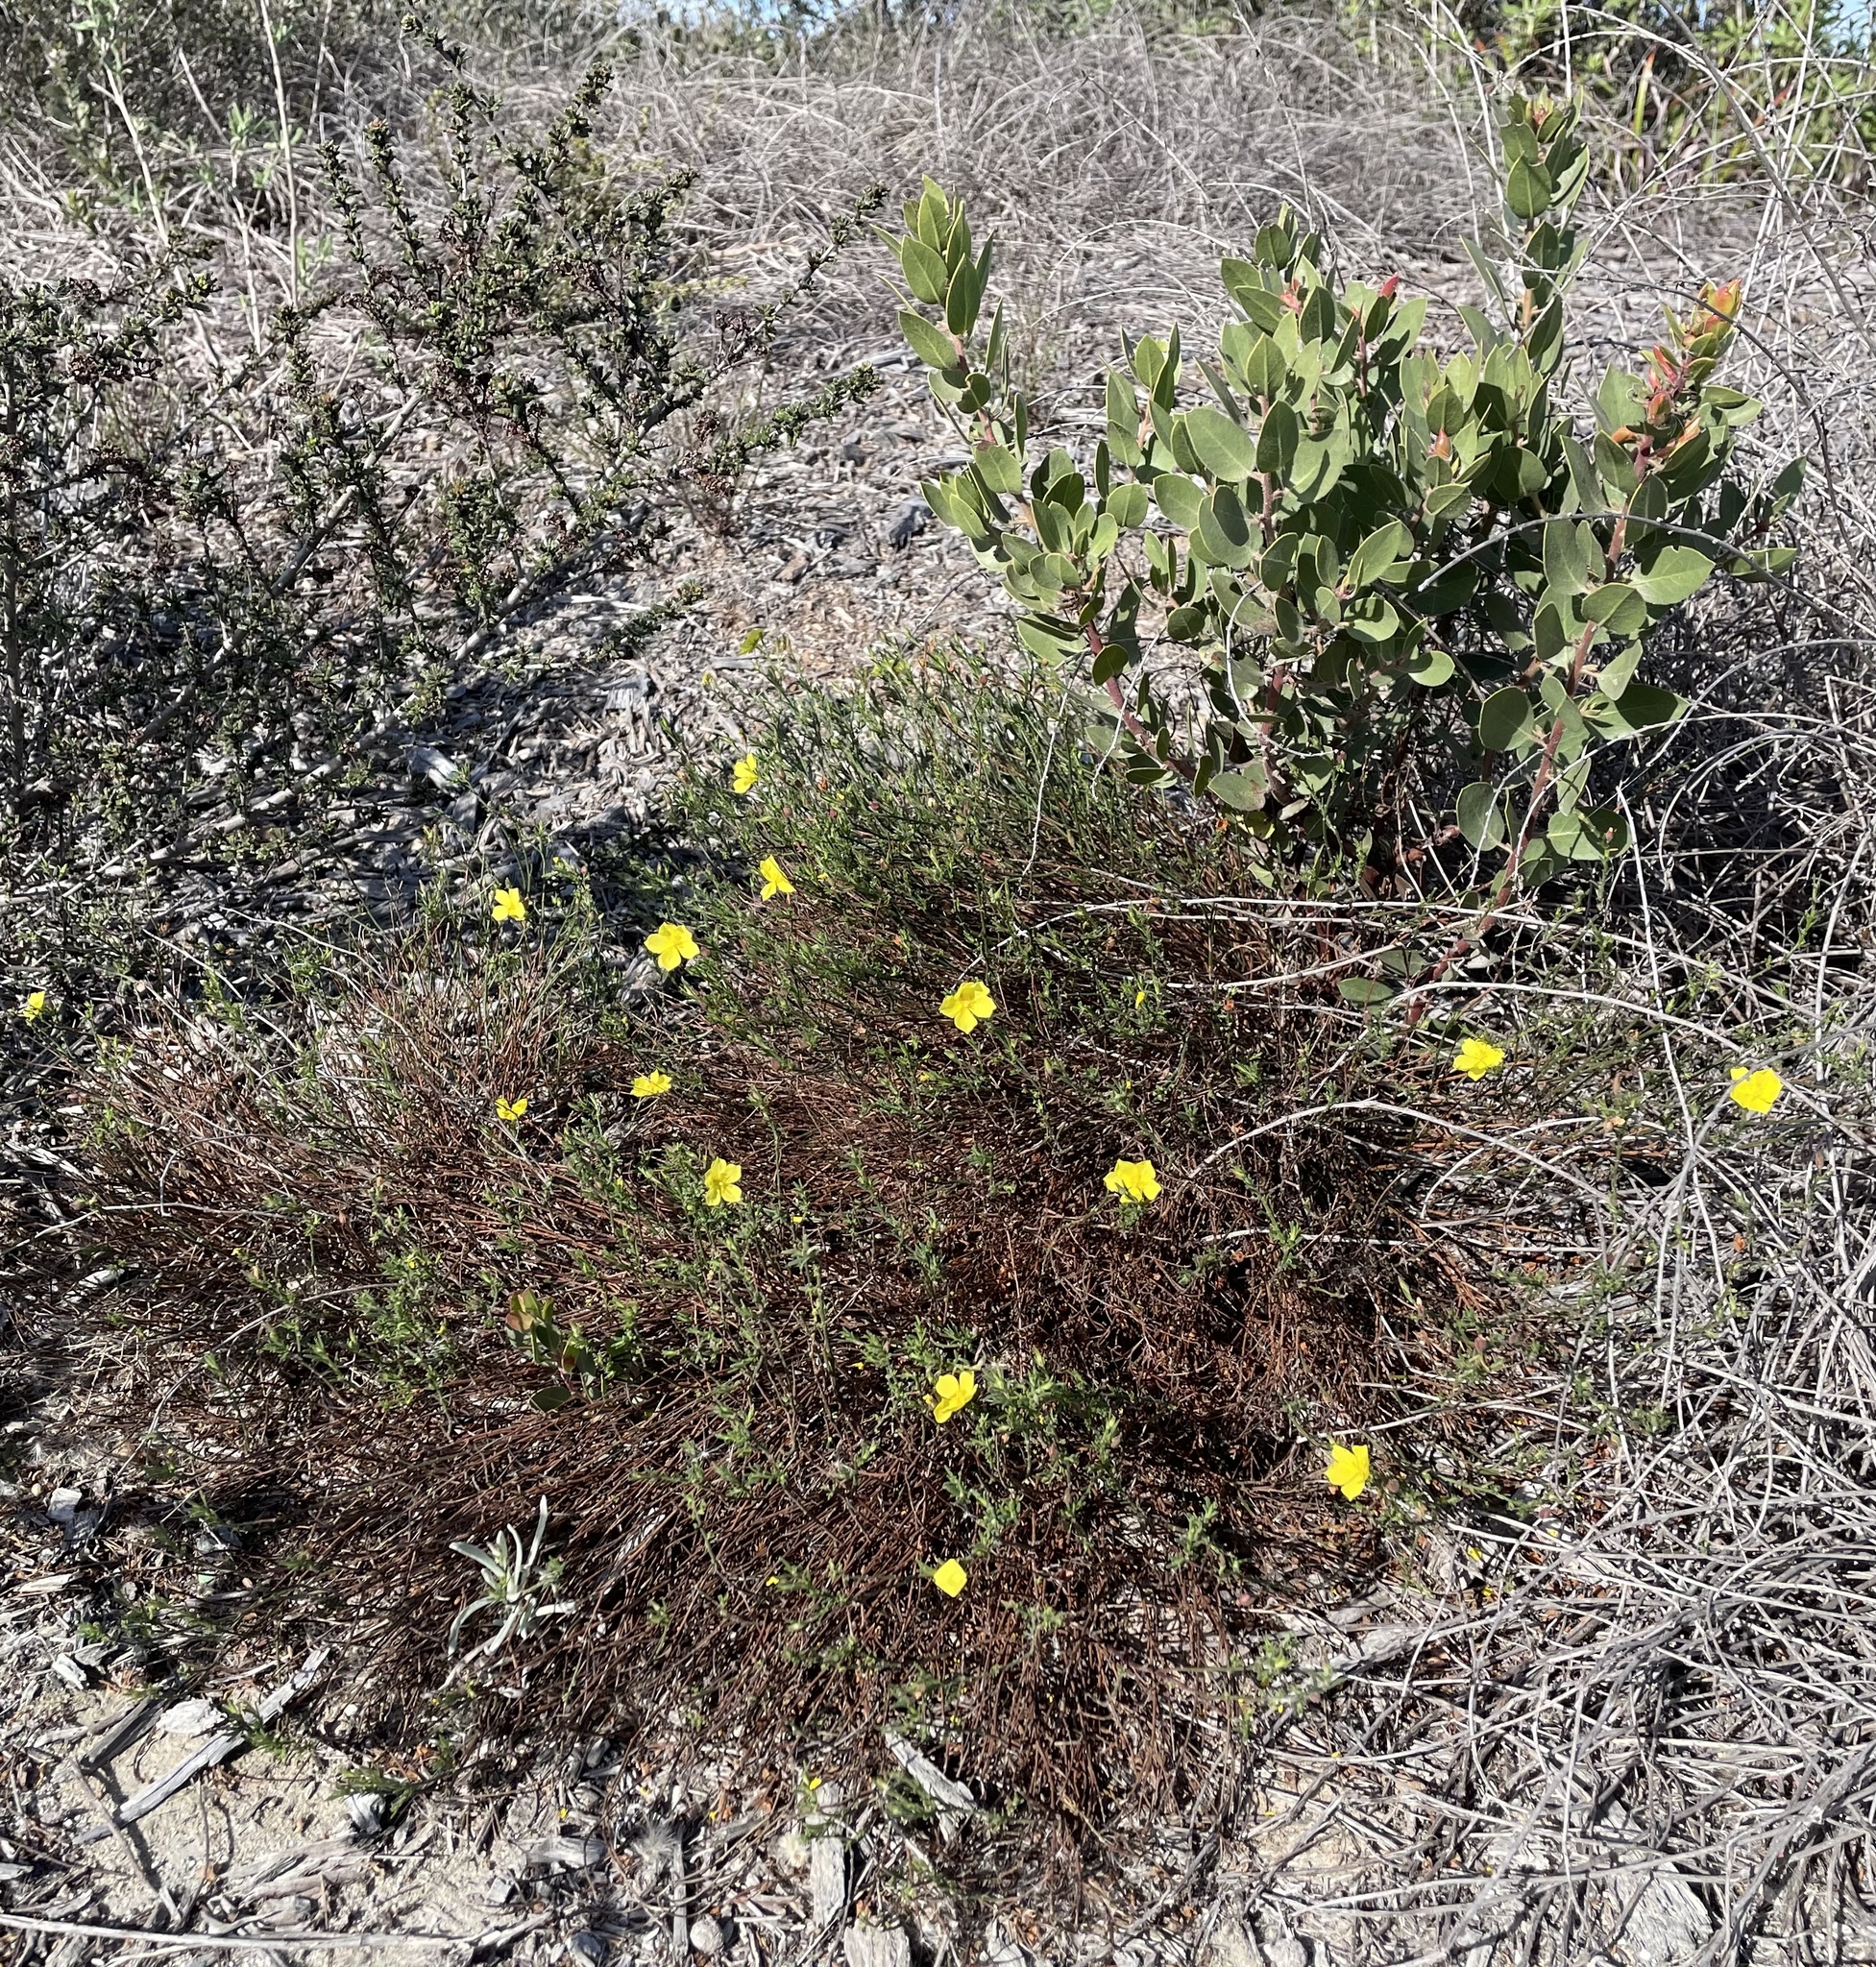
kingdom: Plantae
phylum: Tracheophyta
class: Magnoliopsida
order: Malvales
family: Cistaceae
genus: Crocanthemum
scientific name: Crocanthemum scoparium
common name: Broom-rose
